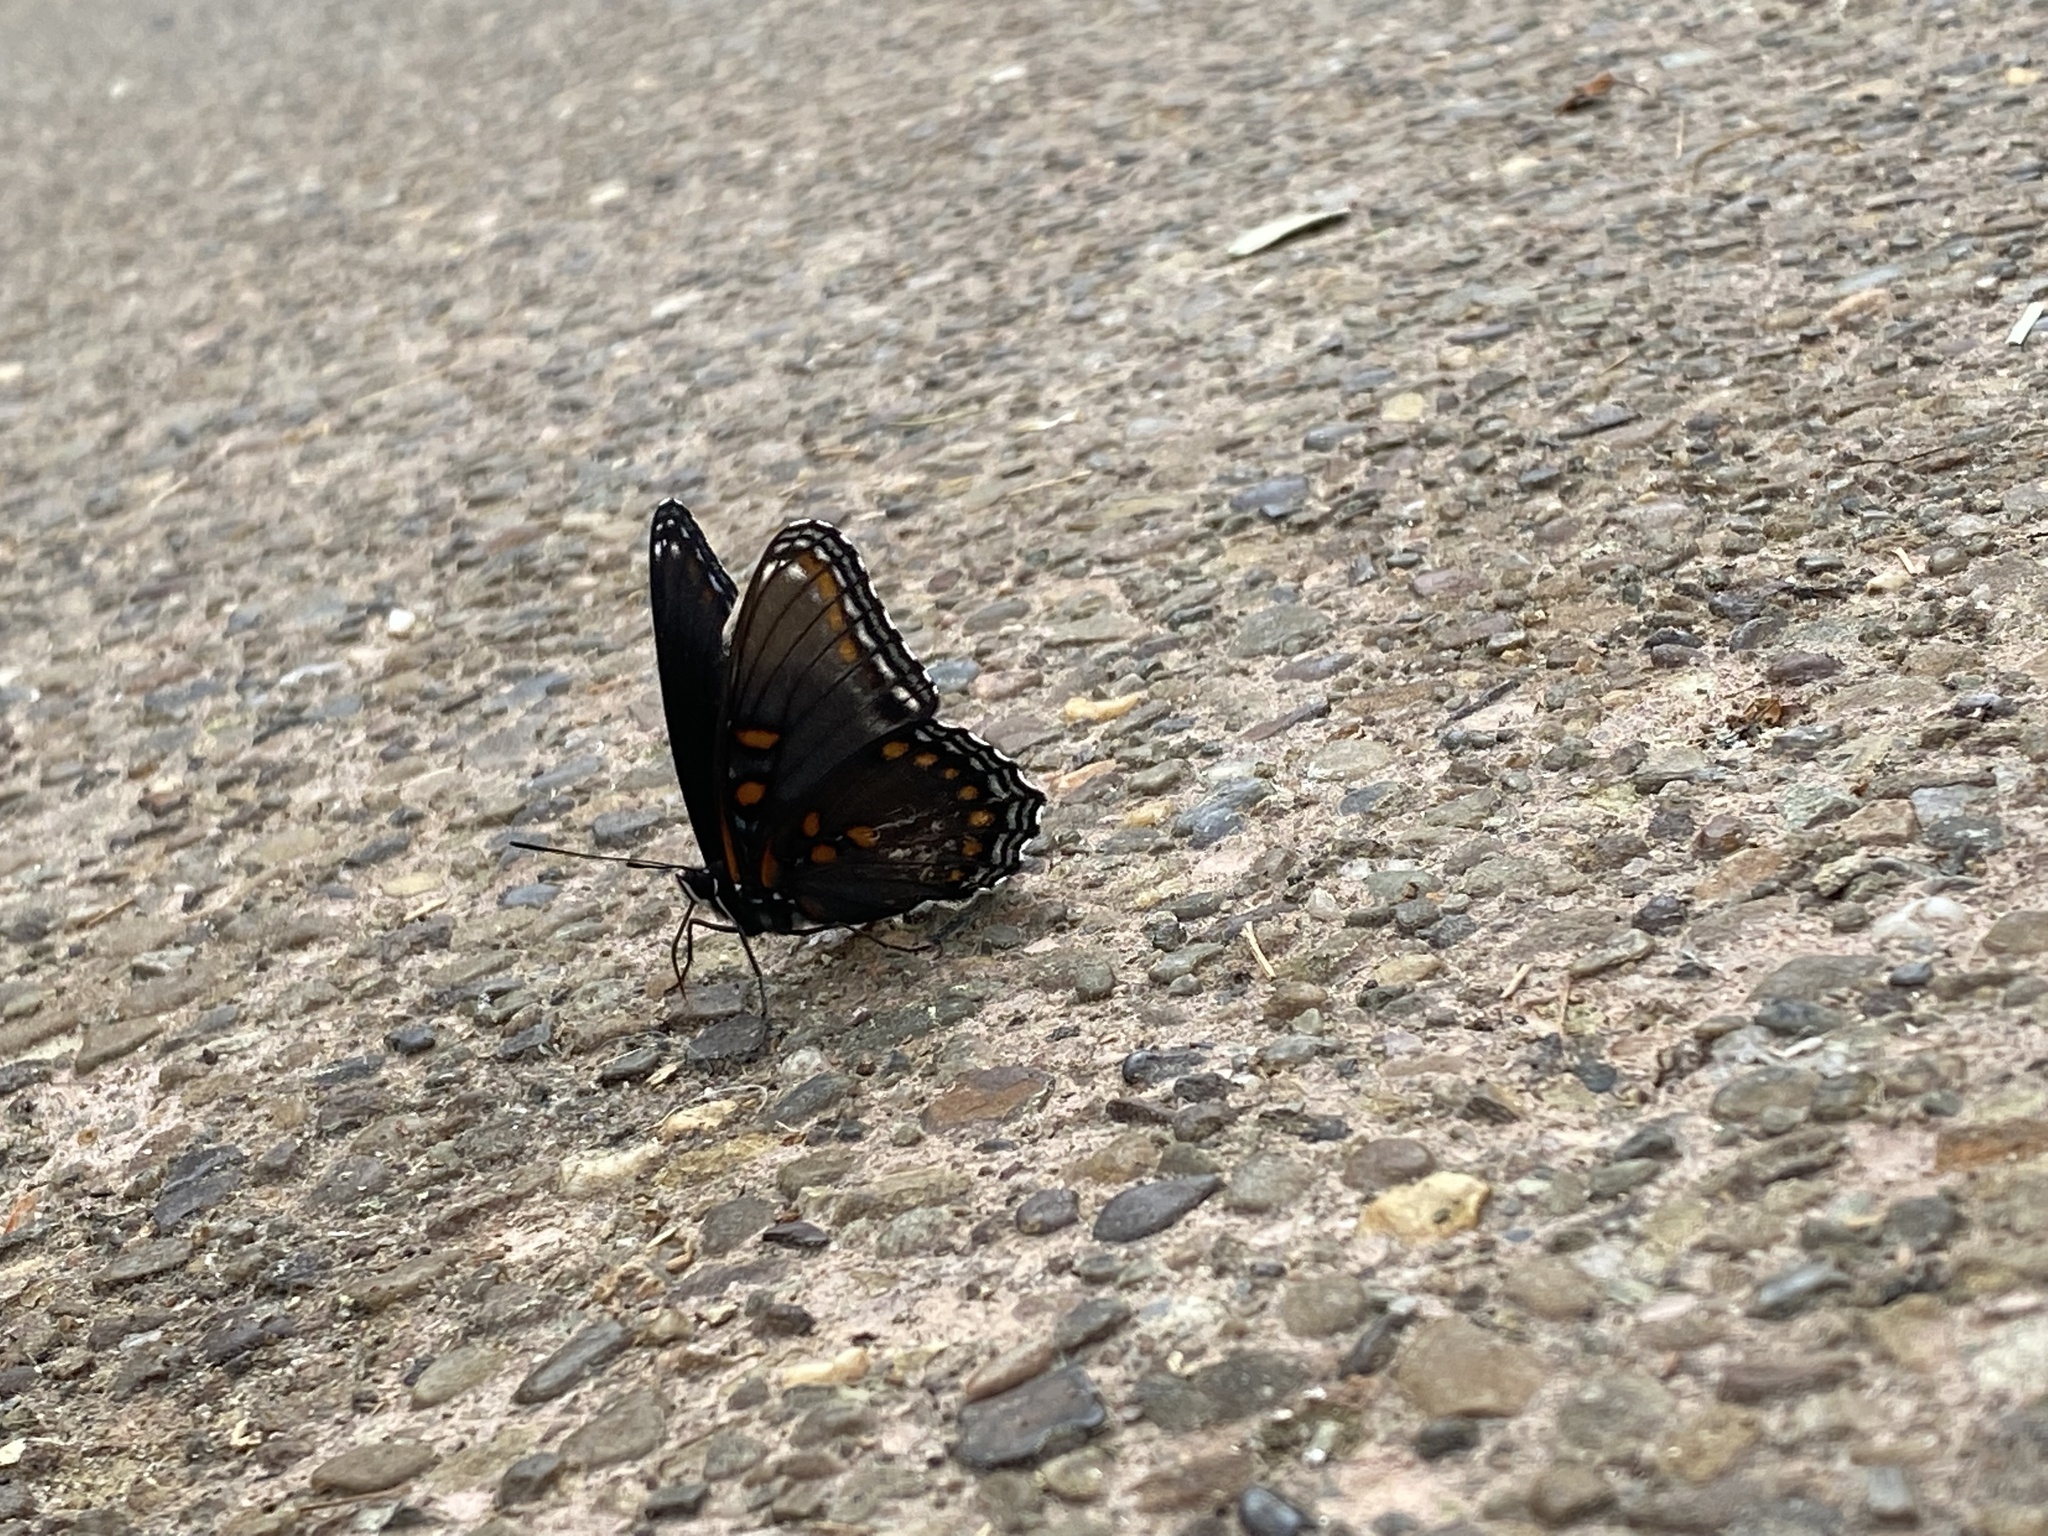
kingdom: Animalia
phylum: Arthropoda
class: Insecta
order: Lepidoptera
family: Nymphalidae
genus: Limenitis
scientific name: Limenitis astyanax
